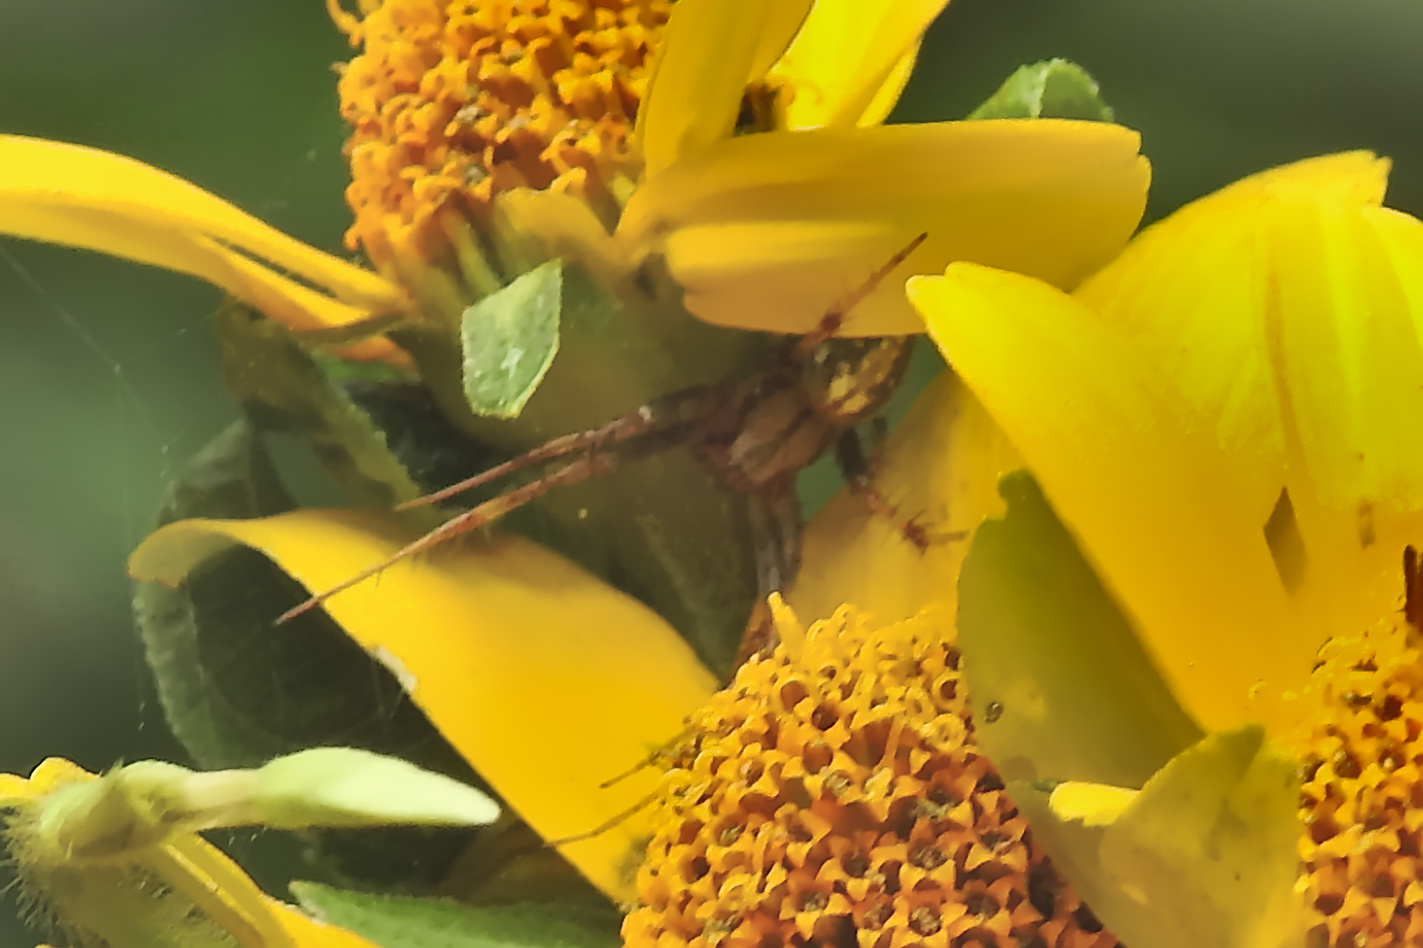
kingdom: Animalia
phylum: Arthropoda
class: Arachnida
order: Araneae
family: Araneidae
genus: Neoscona
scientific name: Neoscona arabesca
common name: Orb weavers
